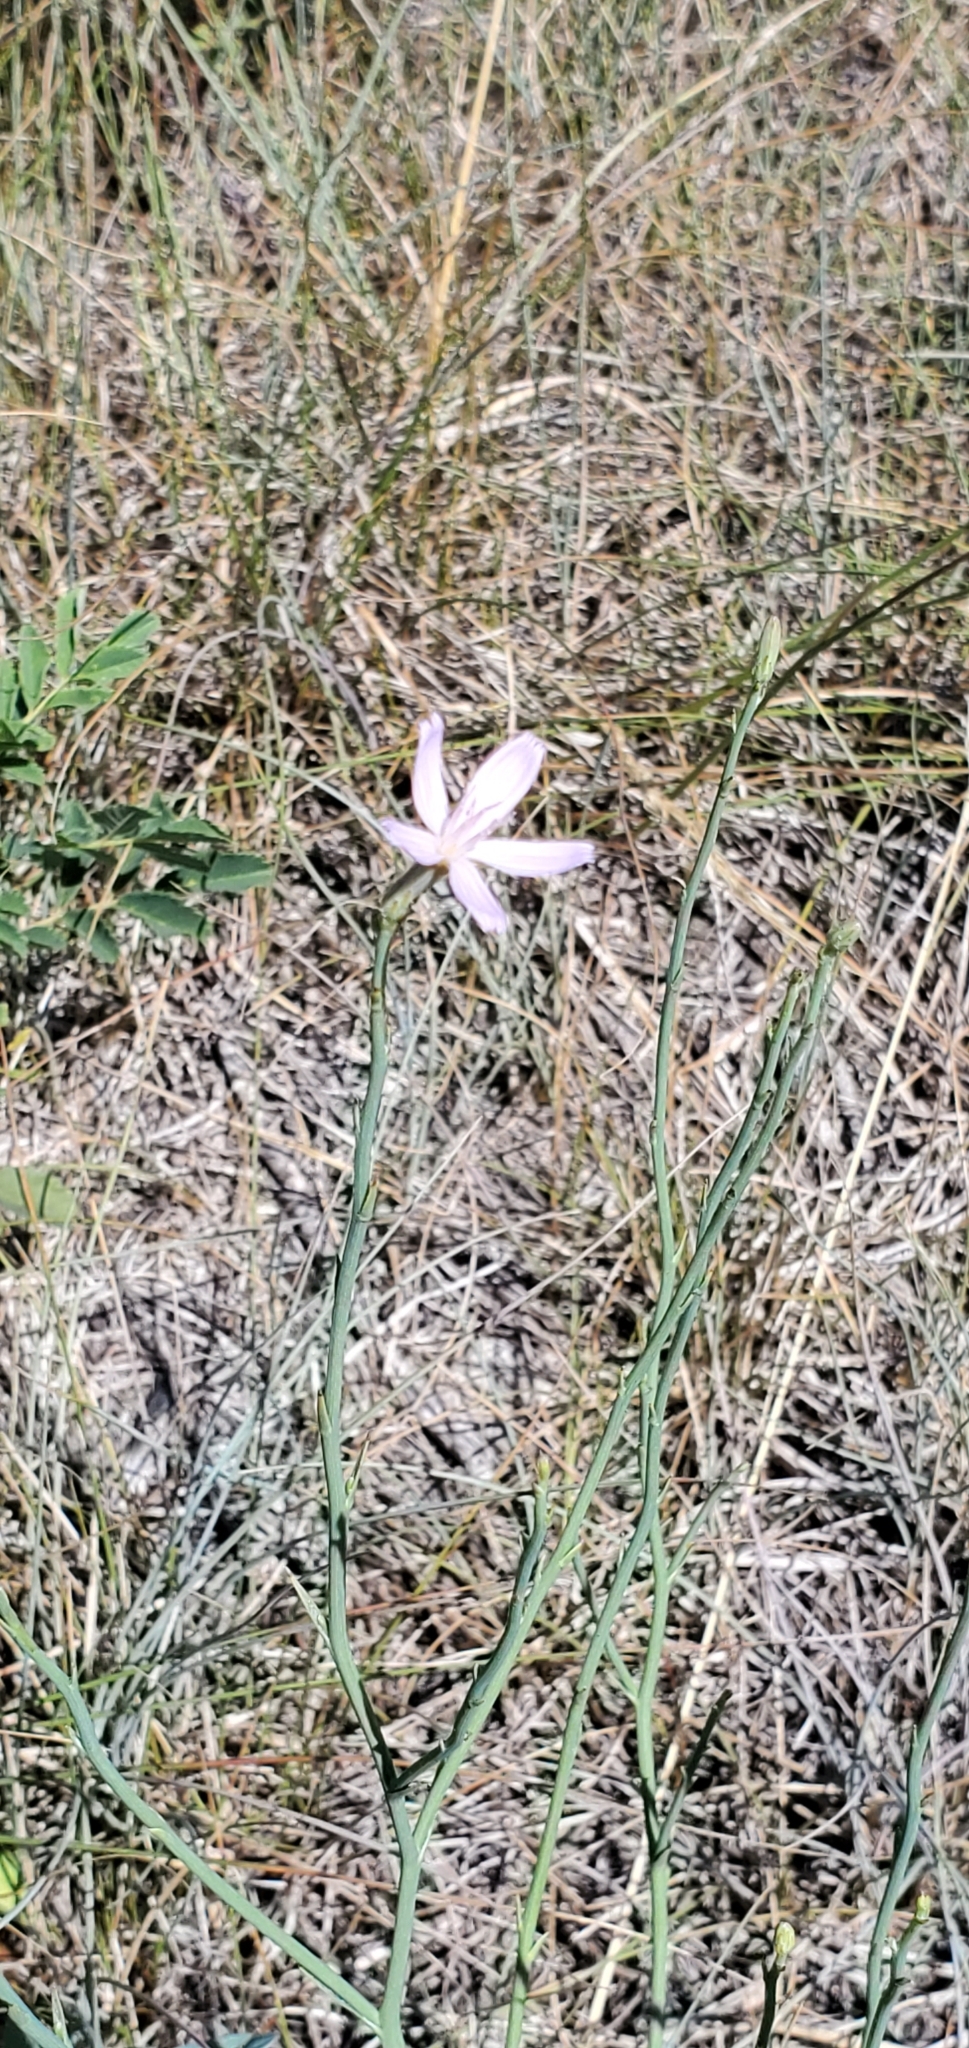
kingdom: Plantae
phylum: Tracheophyta
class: Magnoliopsida
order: Asterales
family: Asteraceae
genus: Lygodesmia
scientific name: Lygodesmia juncea
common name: Common skeletonweed
